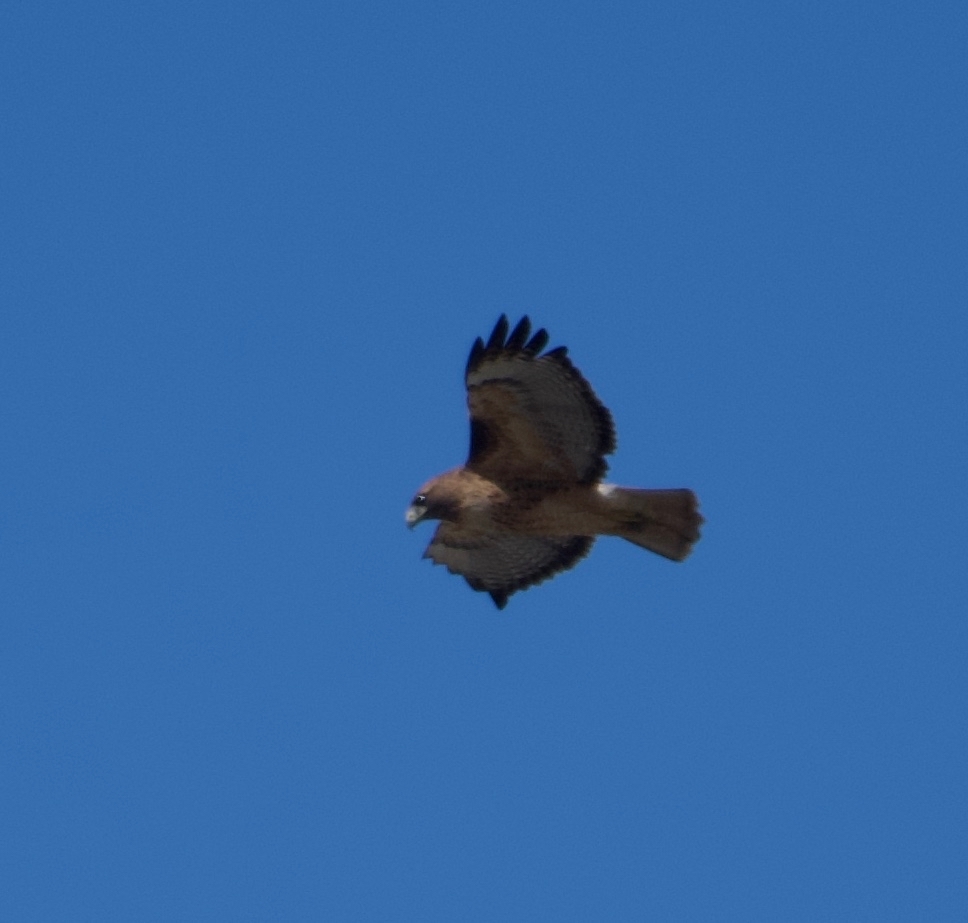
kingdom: Animalia
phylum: Chordata
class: Aves
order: Accipitriformes
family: Accipitridae
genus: Buteo
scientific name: Buteo jamaicensis
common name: Red-tailed hawk
